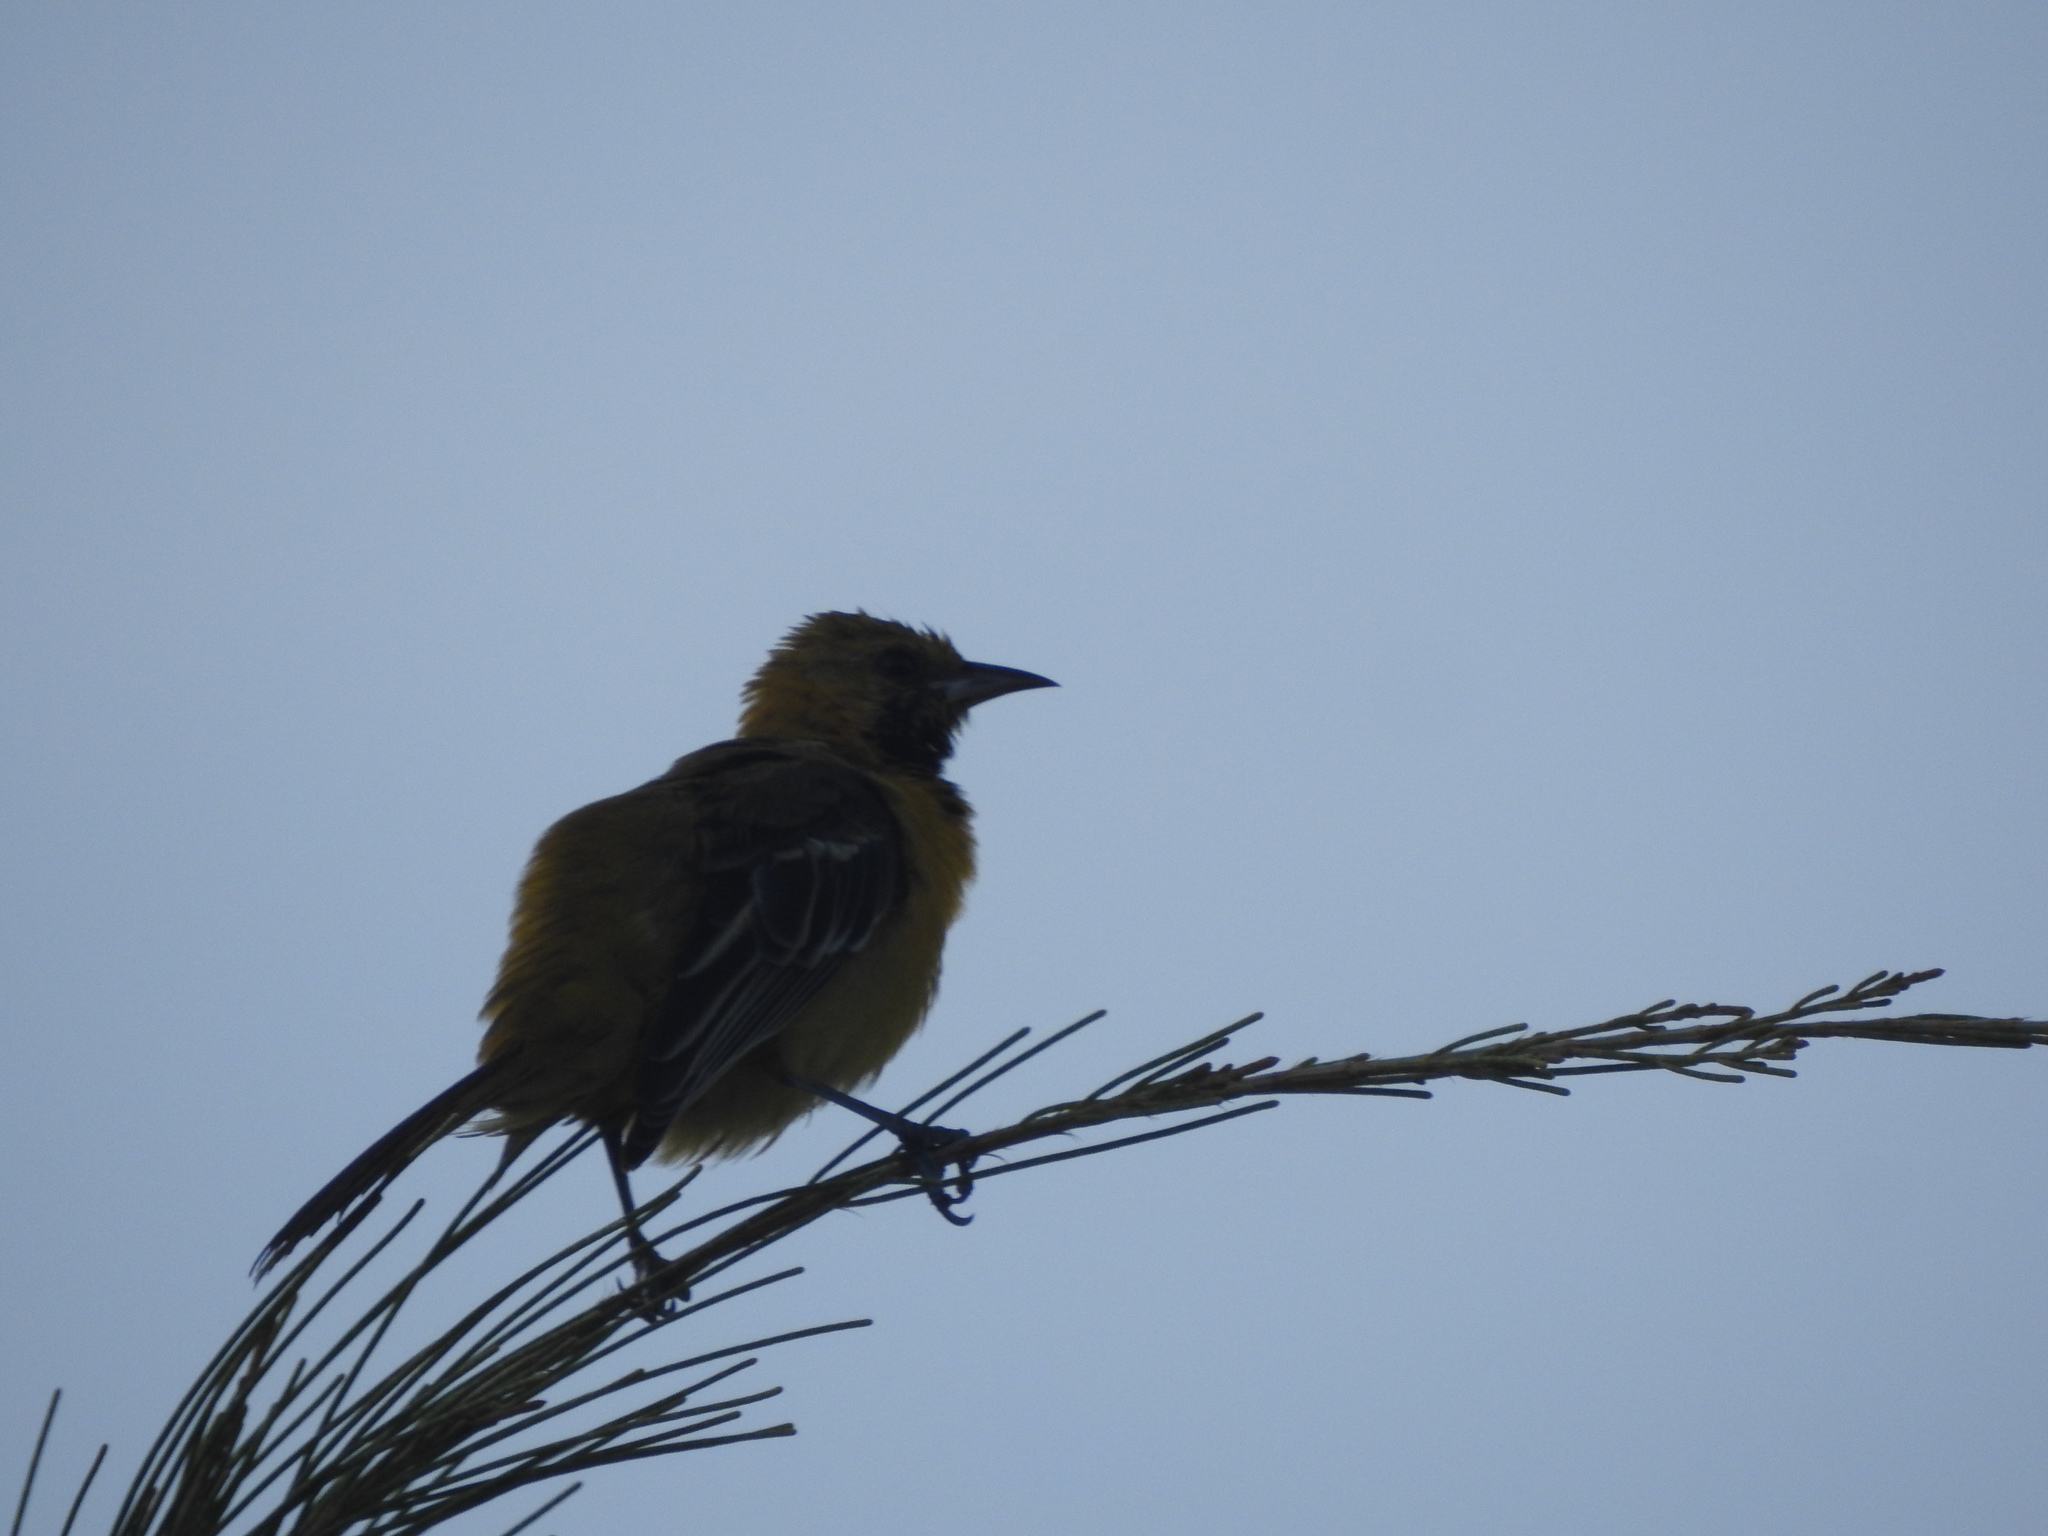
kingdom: Animalia
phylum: Chordata
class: Aves
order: Passeriformes
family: Icteridae
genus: Icterus
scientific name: Icterus cucullatus
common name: Hooded oriole
